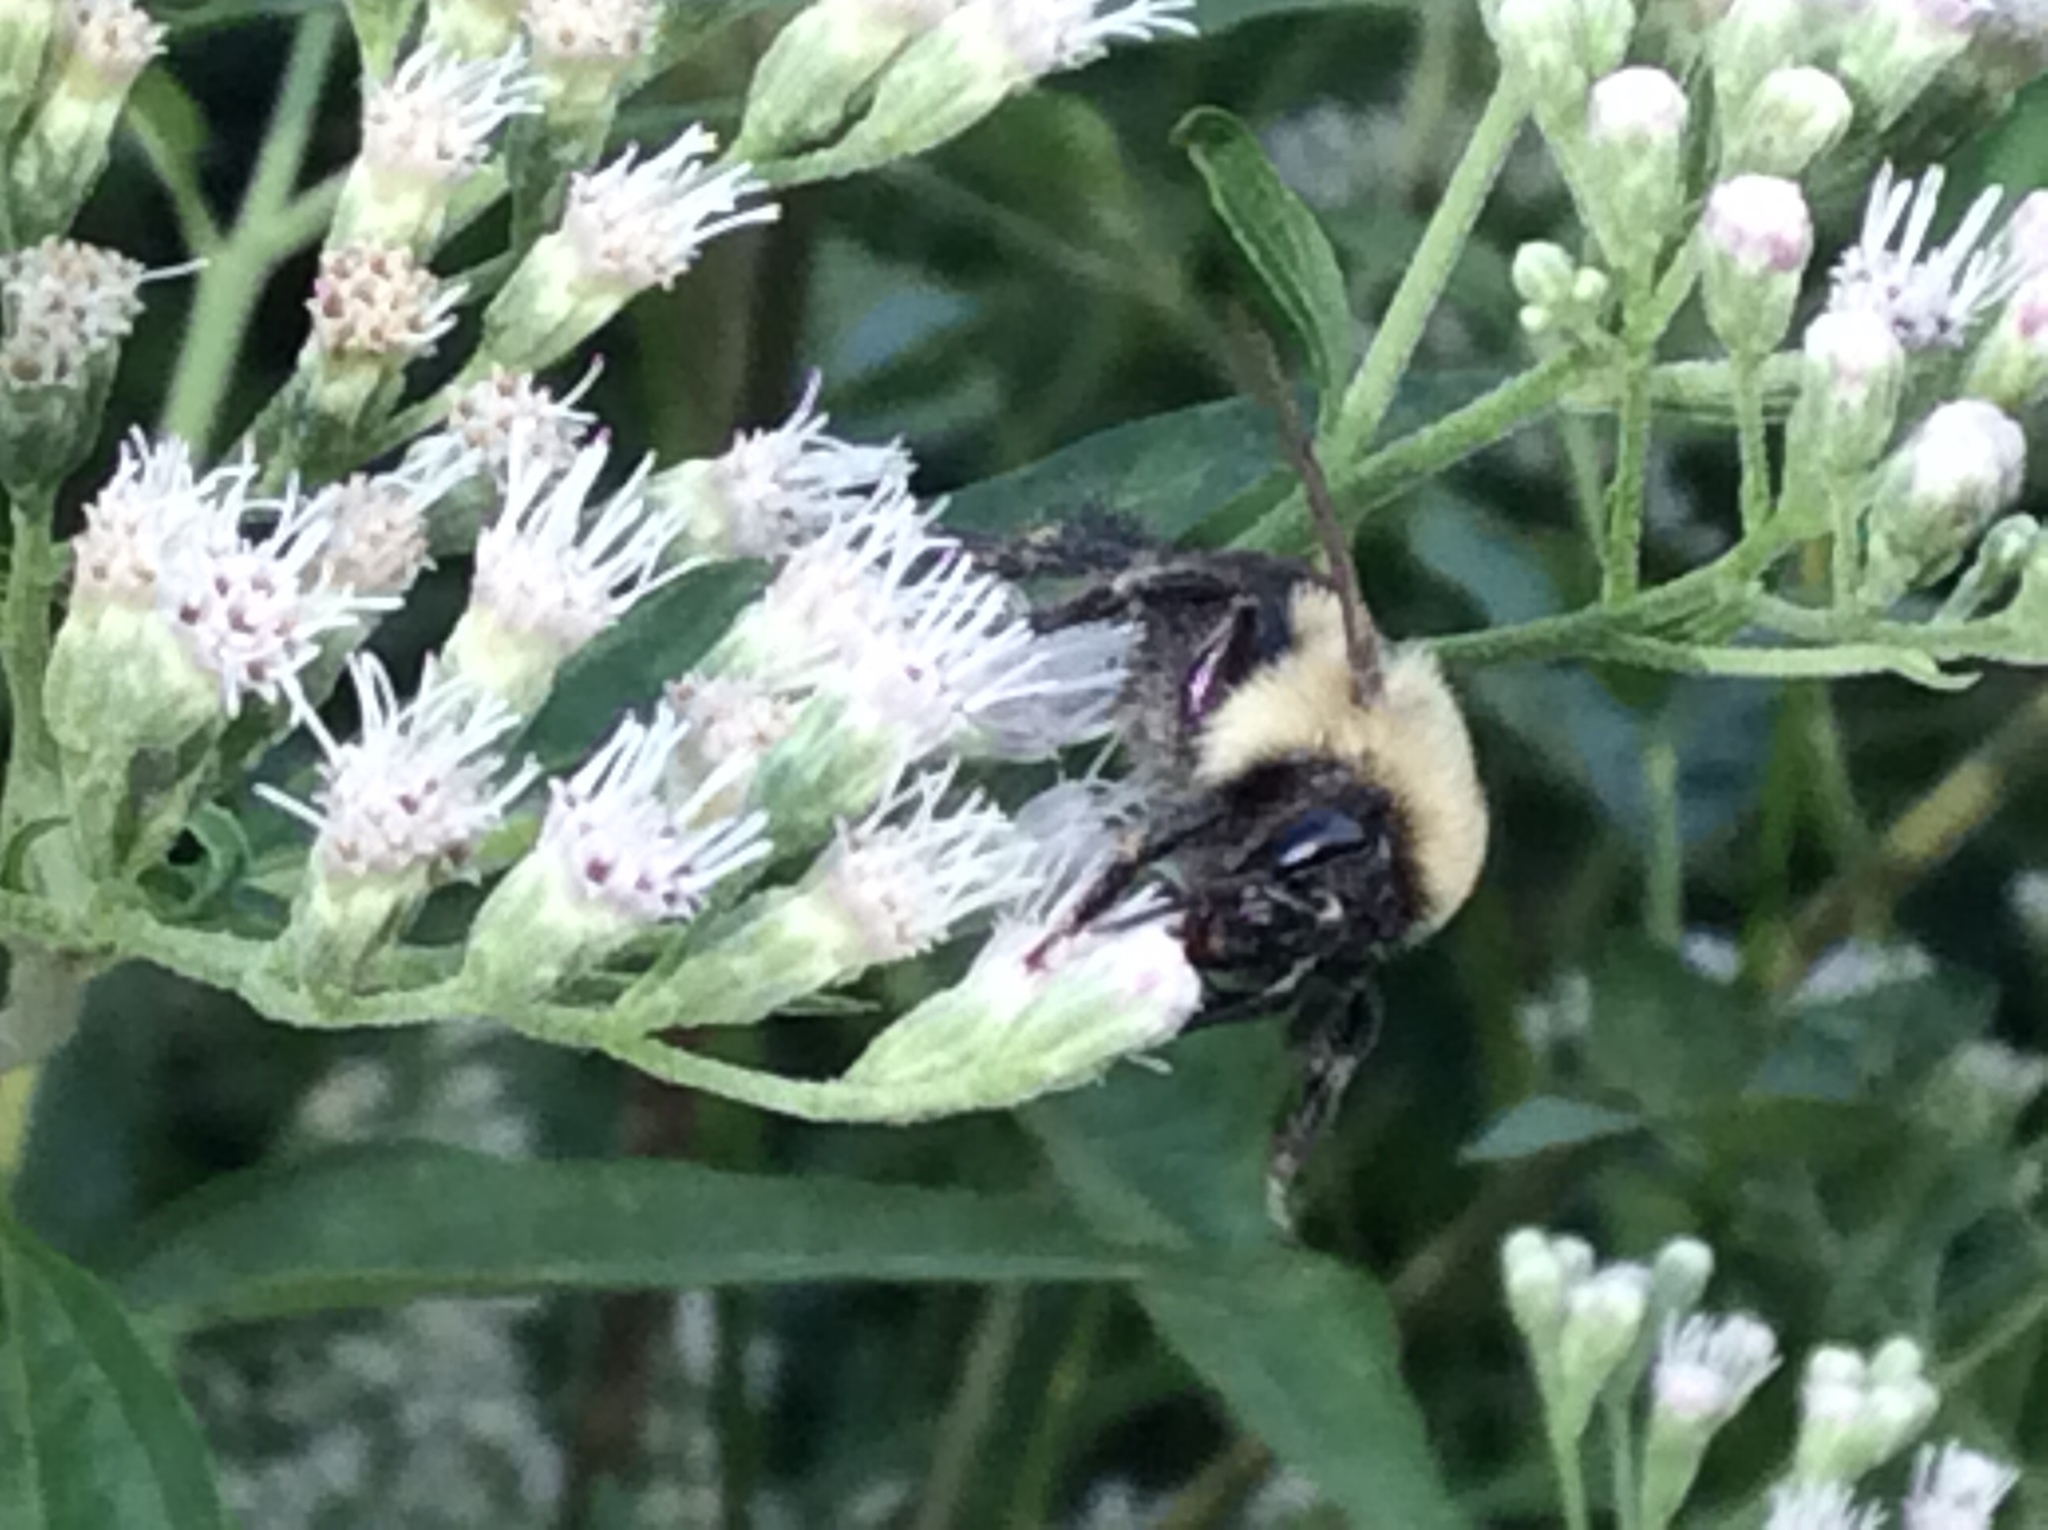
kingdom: Animalia
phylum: Arthropoda
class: Insecta
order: Hymenoptera
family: Apidae
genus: Bombus
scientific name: Bombus impatiens
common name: Common eastern bumble bee
